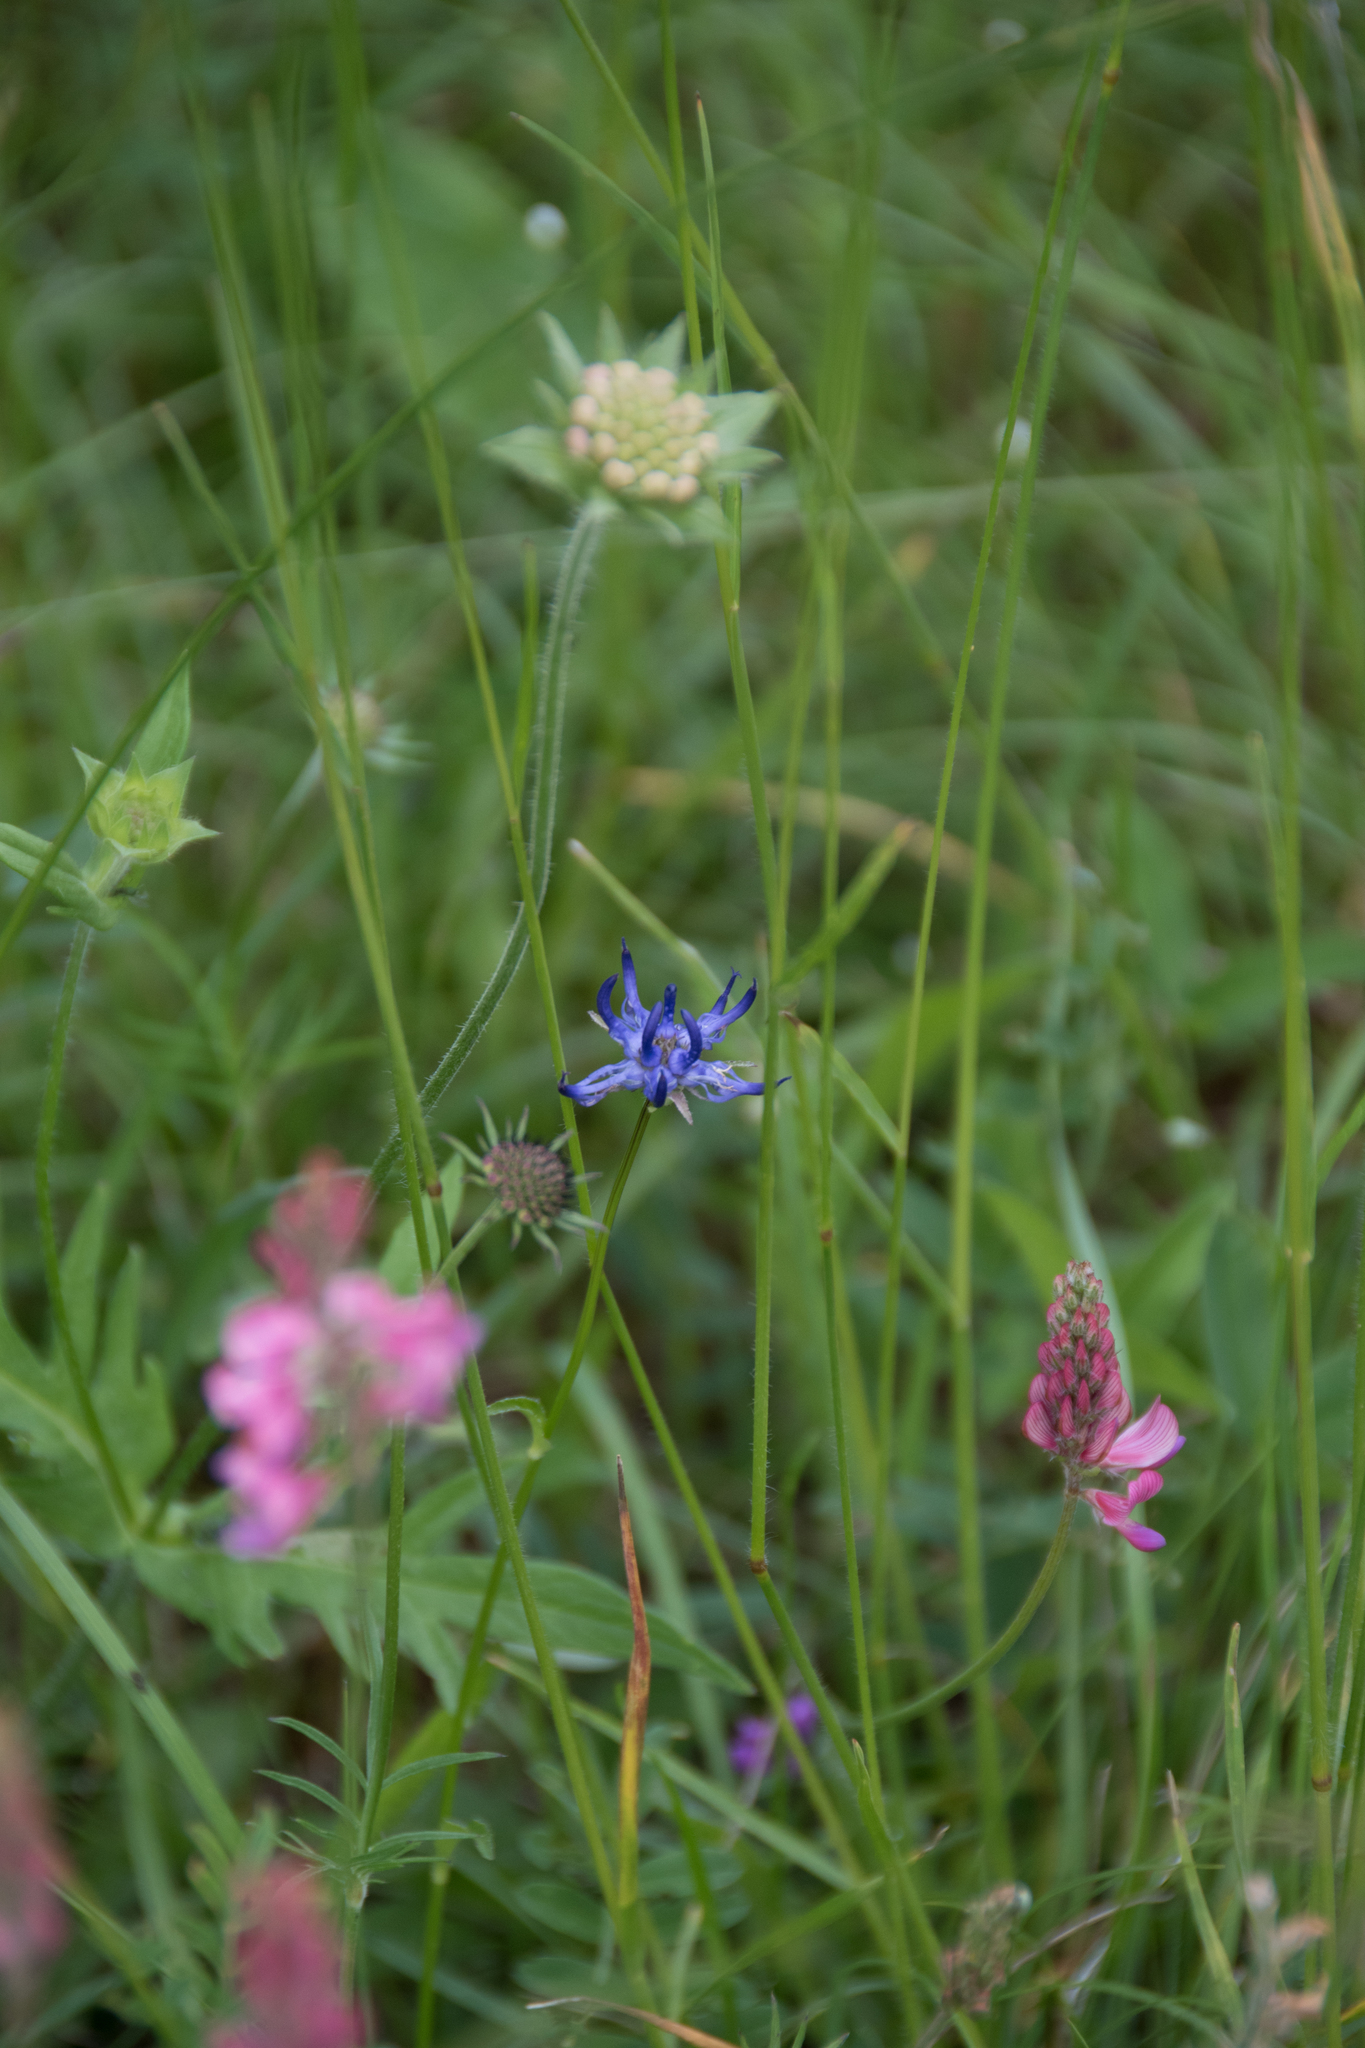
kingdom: Plantae
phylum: Tracheophyta
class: Magnoliopsida
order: Asterales
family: Campanulaceae
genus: Phyteuma
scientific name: Phyteuma orbiculare
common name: Round-headed rampion
